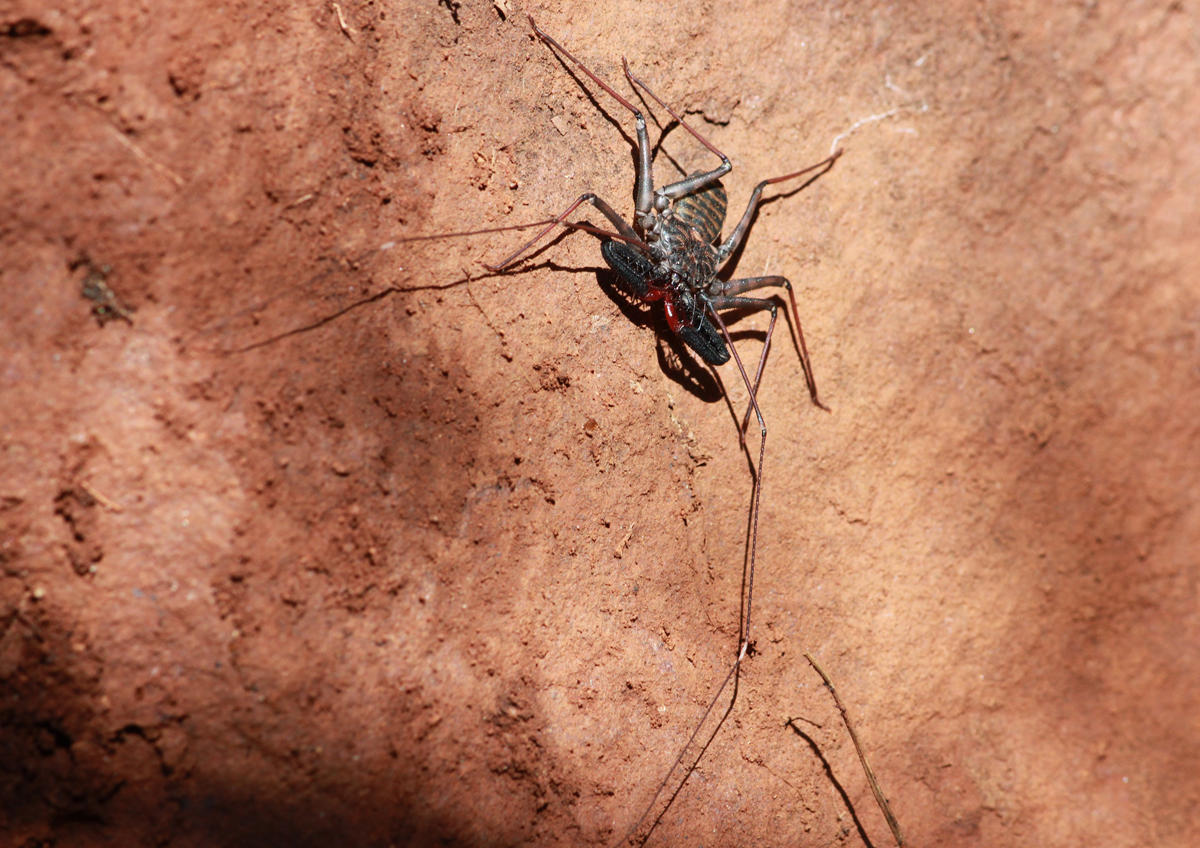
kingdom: Animalia
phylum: Arthropoda
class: Arachnida
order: Amblypygi
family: Phrynichidae
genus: Damon
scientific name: Damon variegatus
